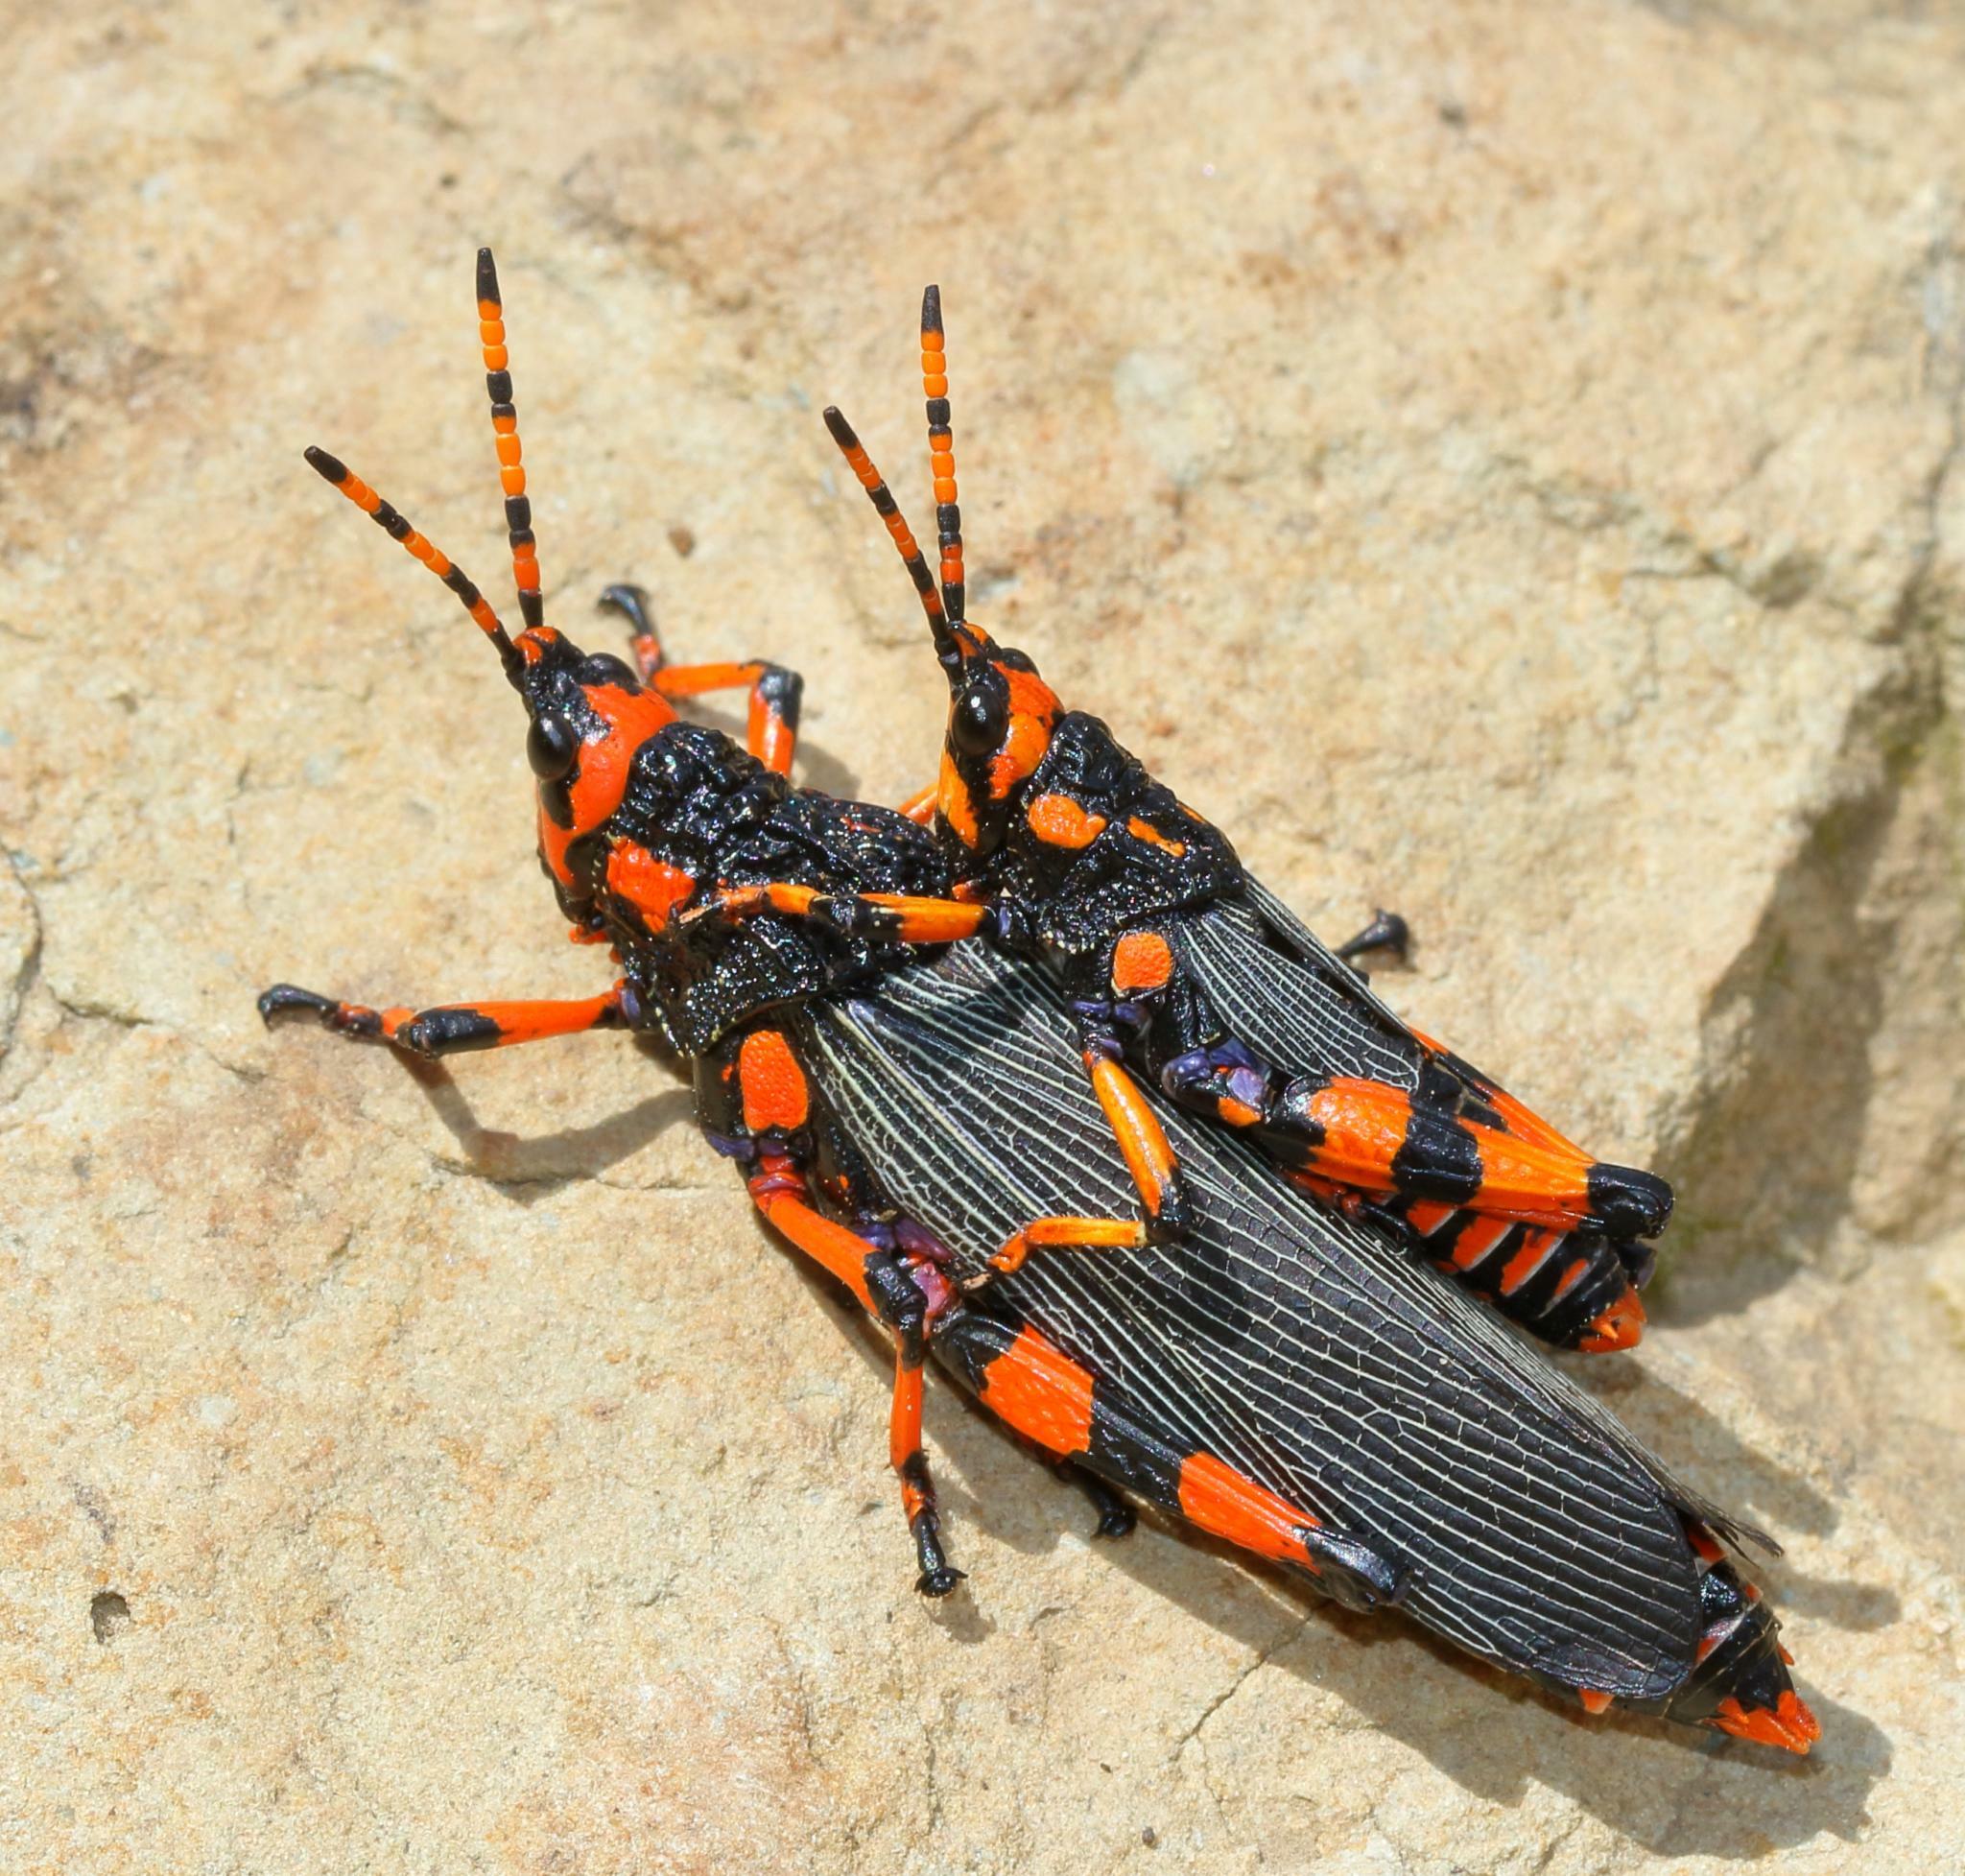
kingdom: Animalia
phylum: Arthropoda
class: Insecta
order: Orthoptera
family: Pyrgomorphidae
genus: Maura
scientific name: Maura rubroornata
